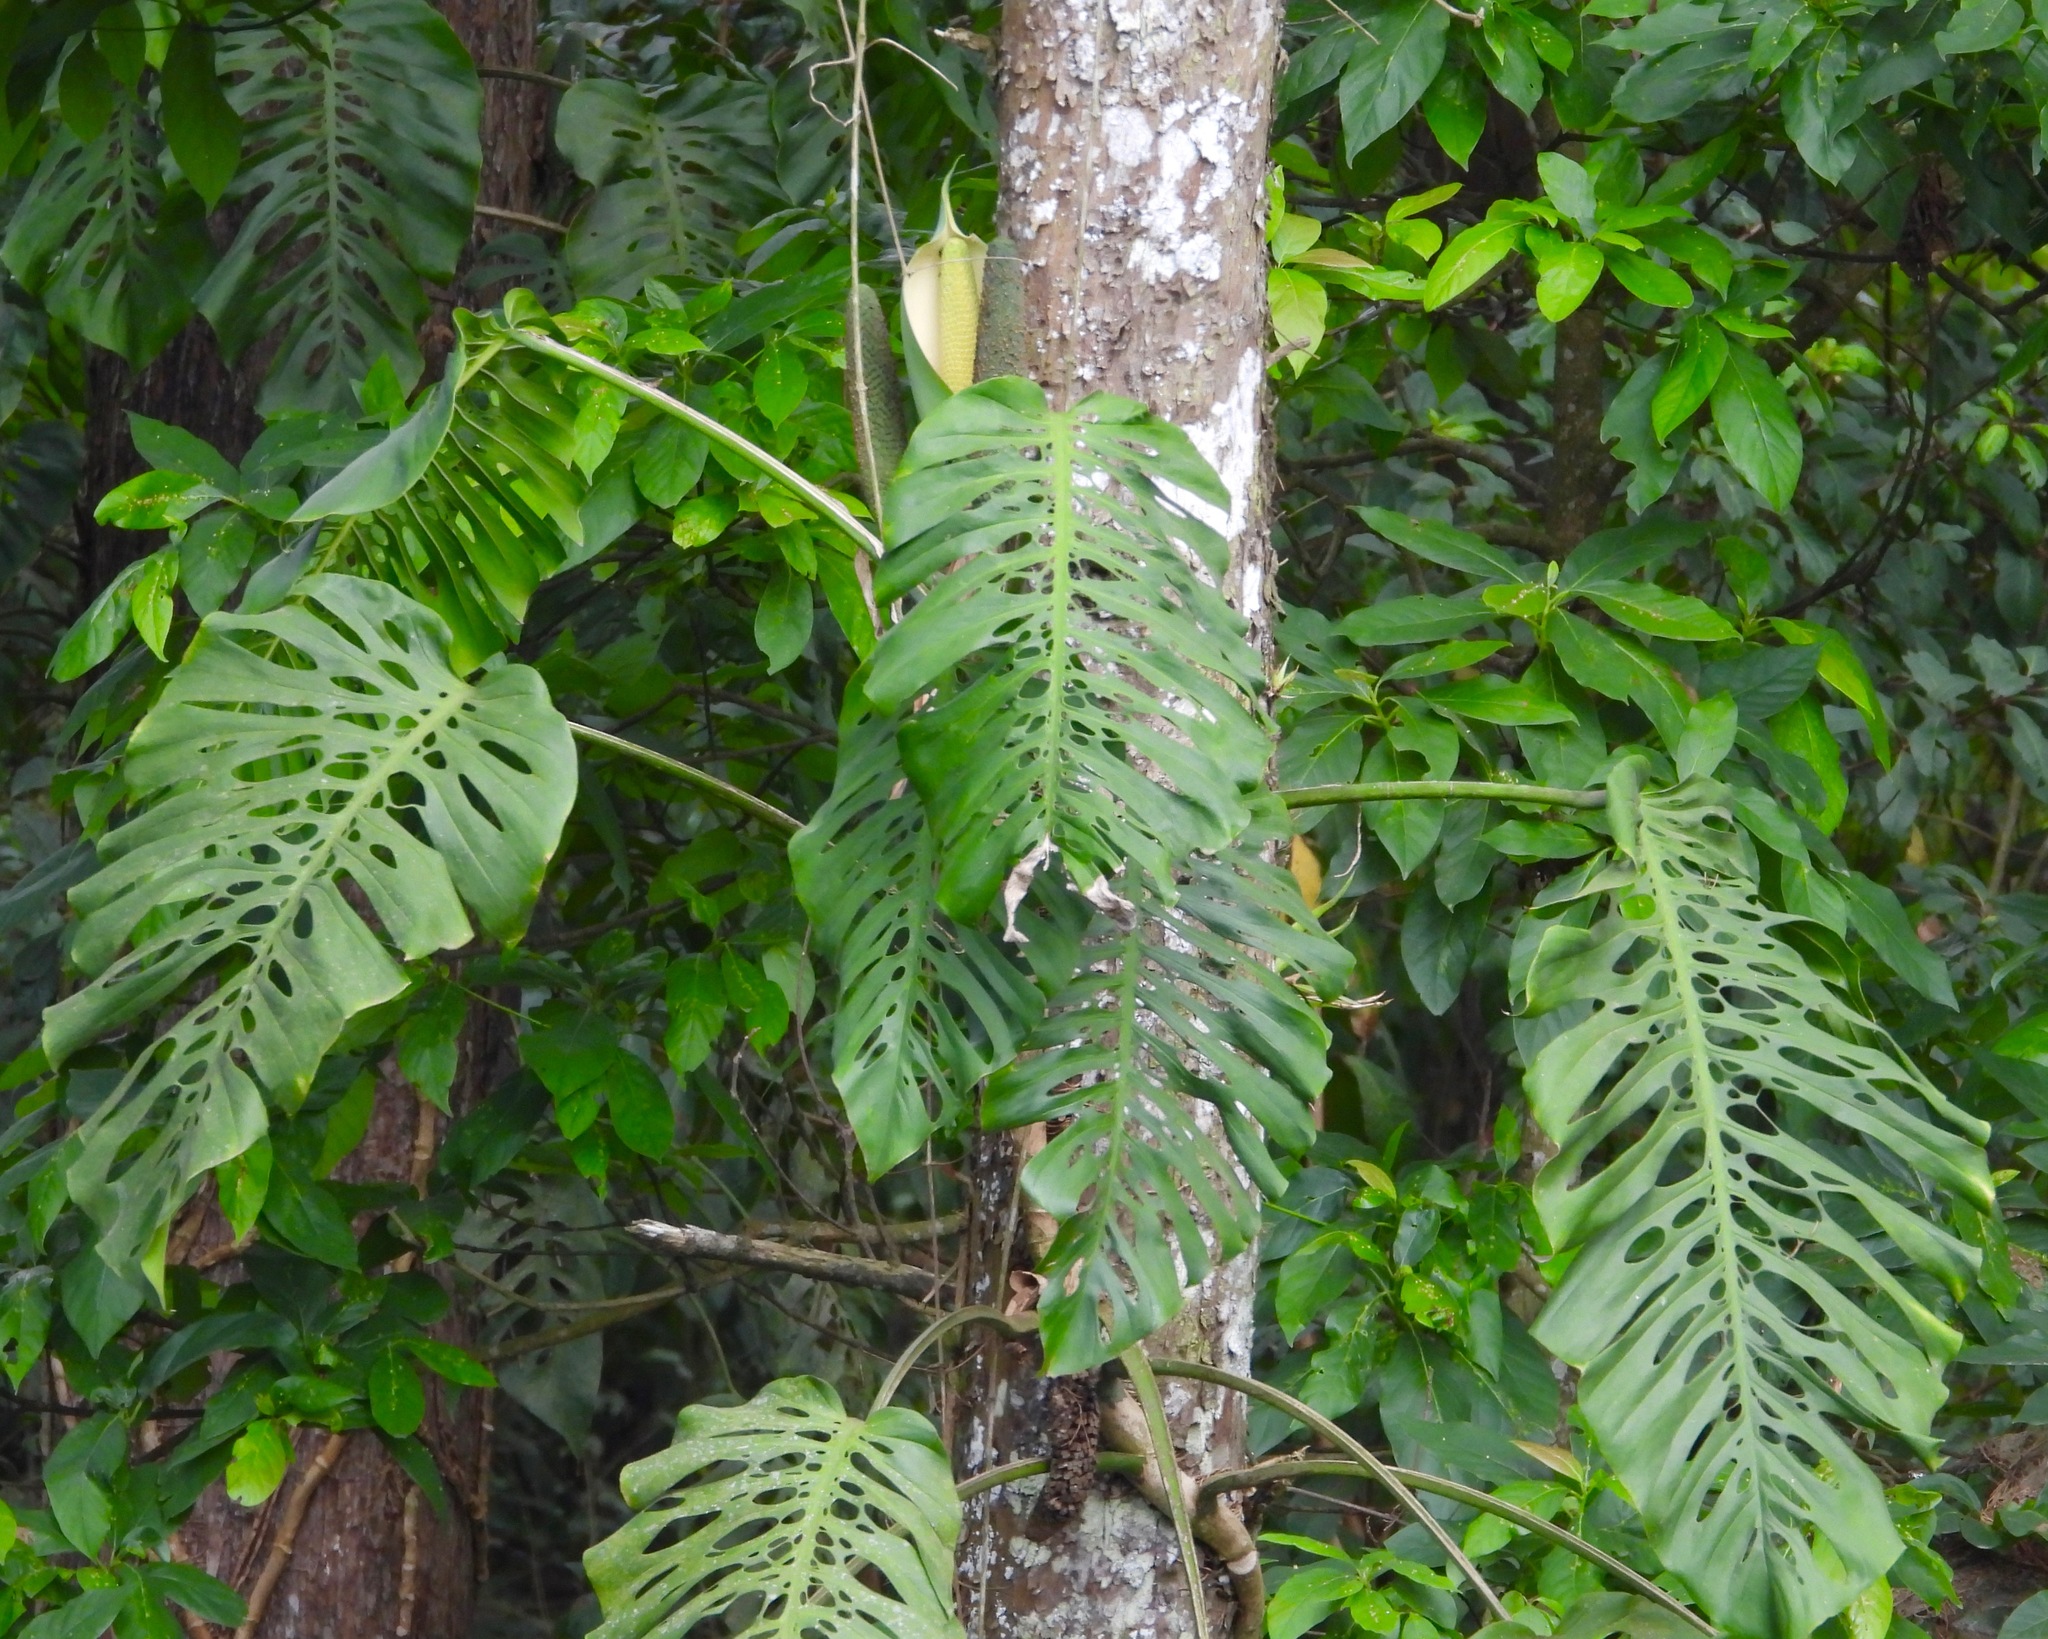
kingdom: Plantae
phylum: Tracheophyta
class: Liliopsida
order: Alismatales
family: Araceae
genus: Monstera
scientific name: Monstera siltepecana
